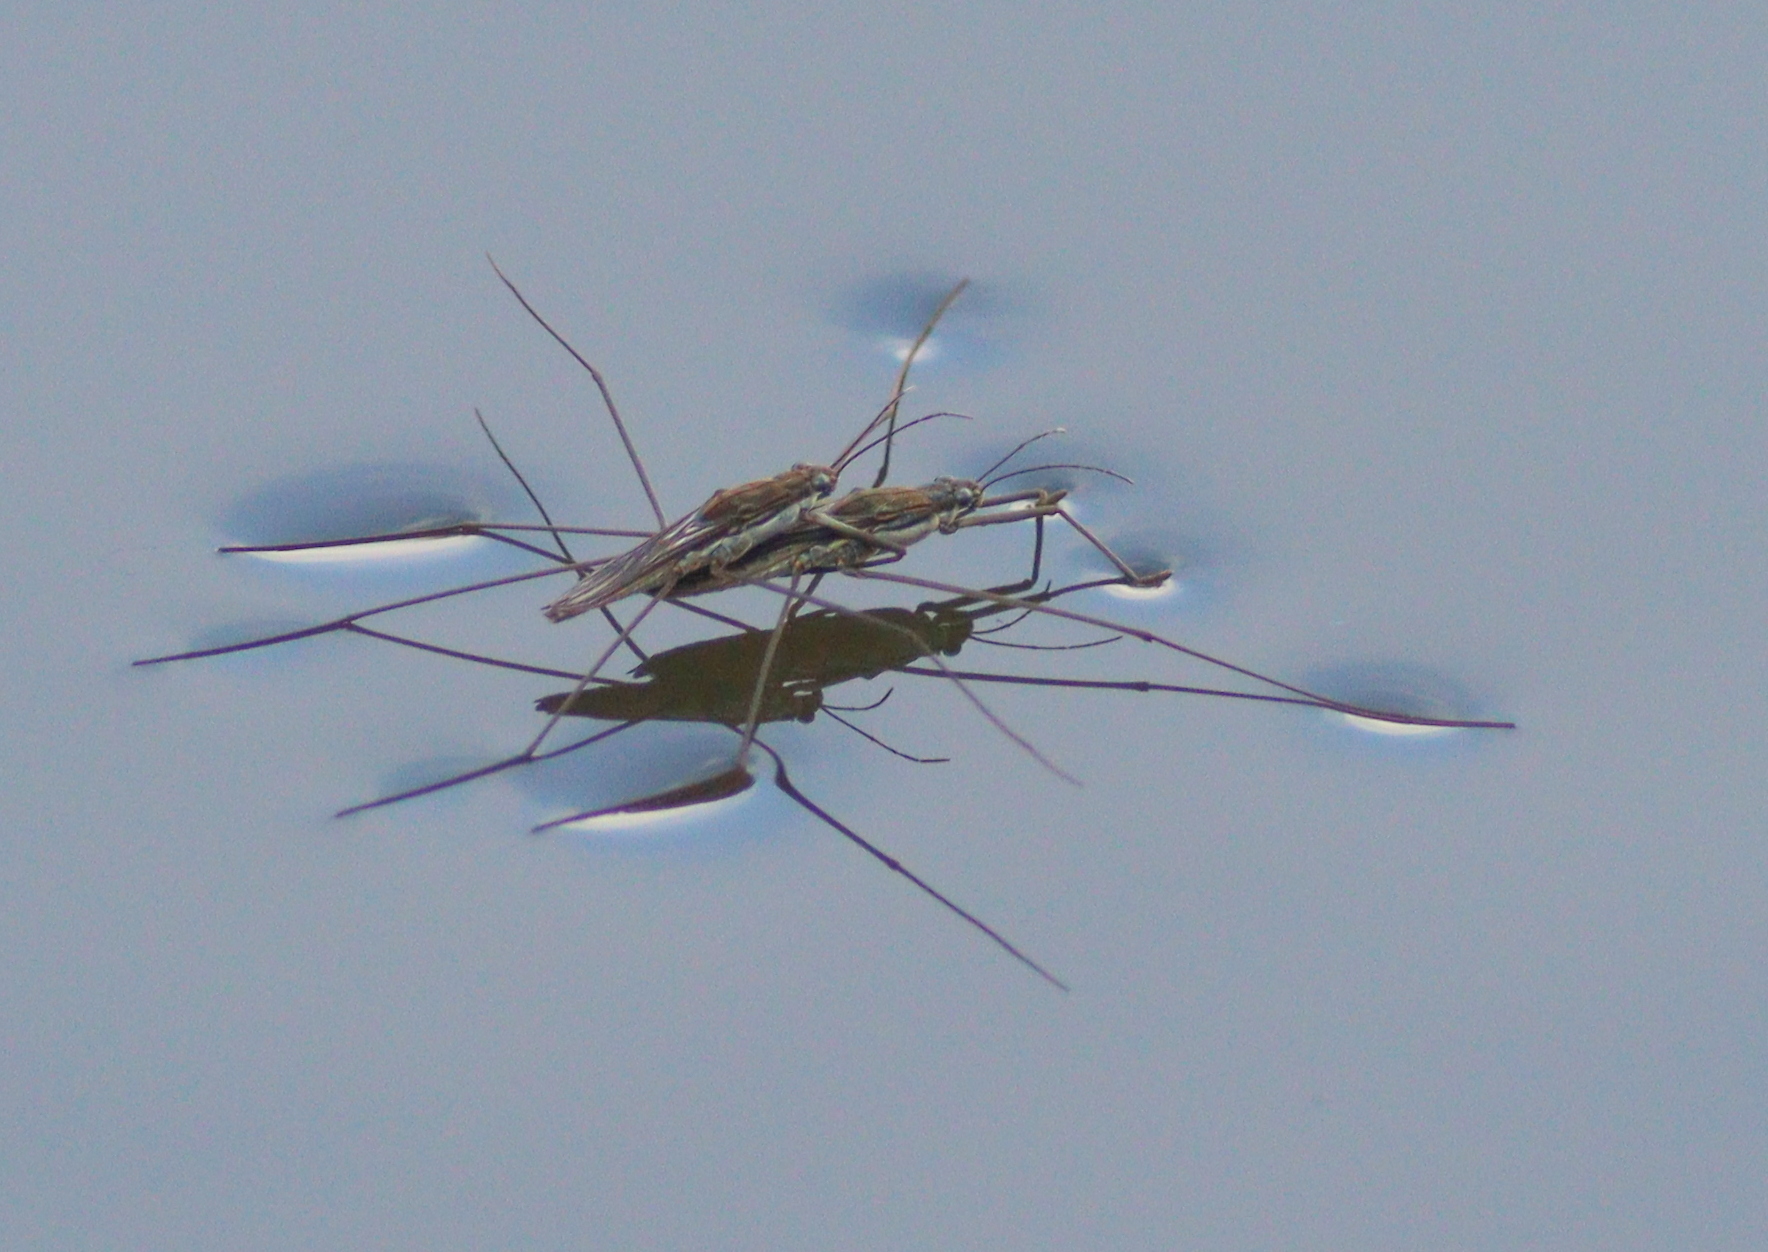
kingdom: Animalia
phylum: Arthropoda
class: Insecta
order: Hemiptera
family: Gerridae
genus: Aquarius
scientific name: Aquarius paludum
